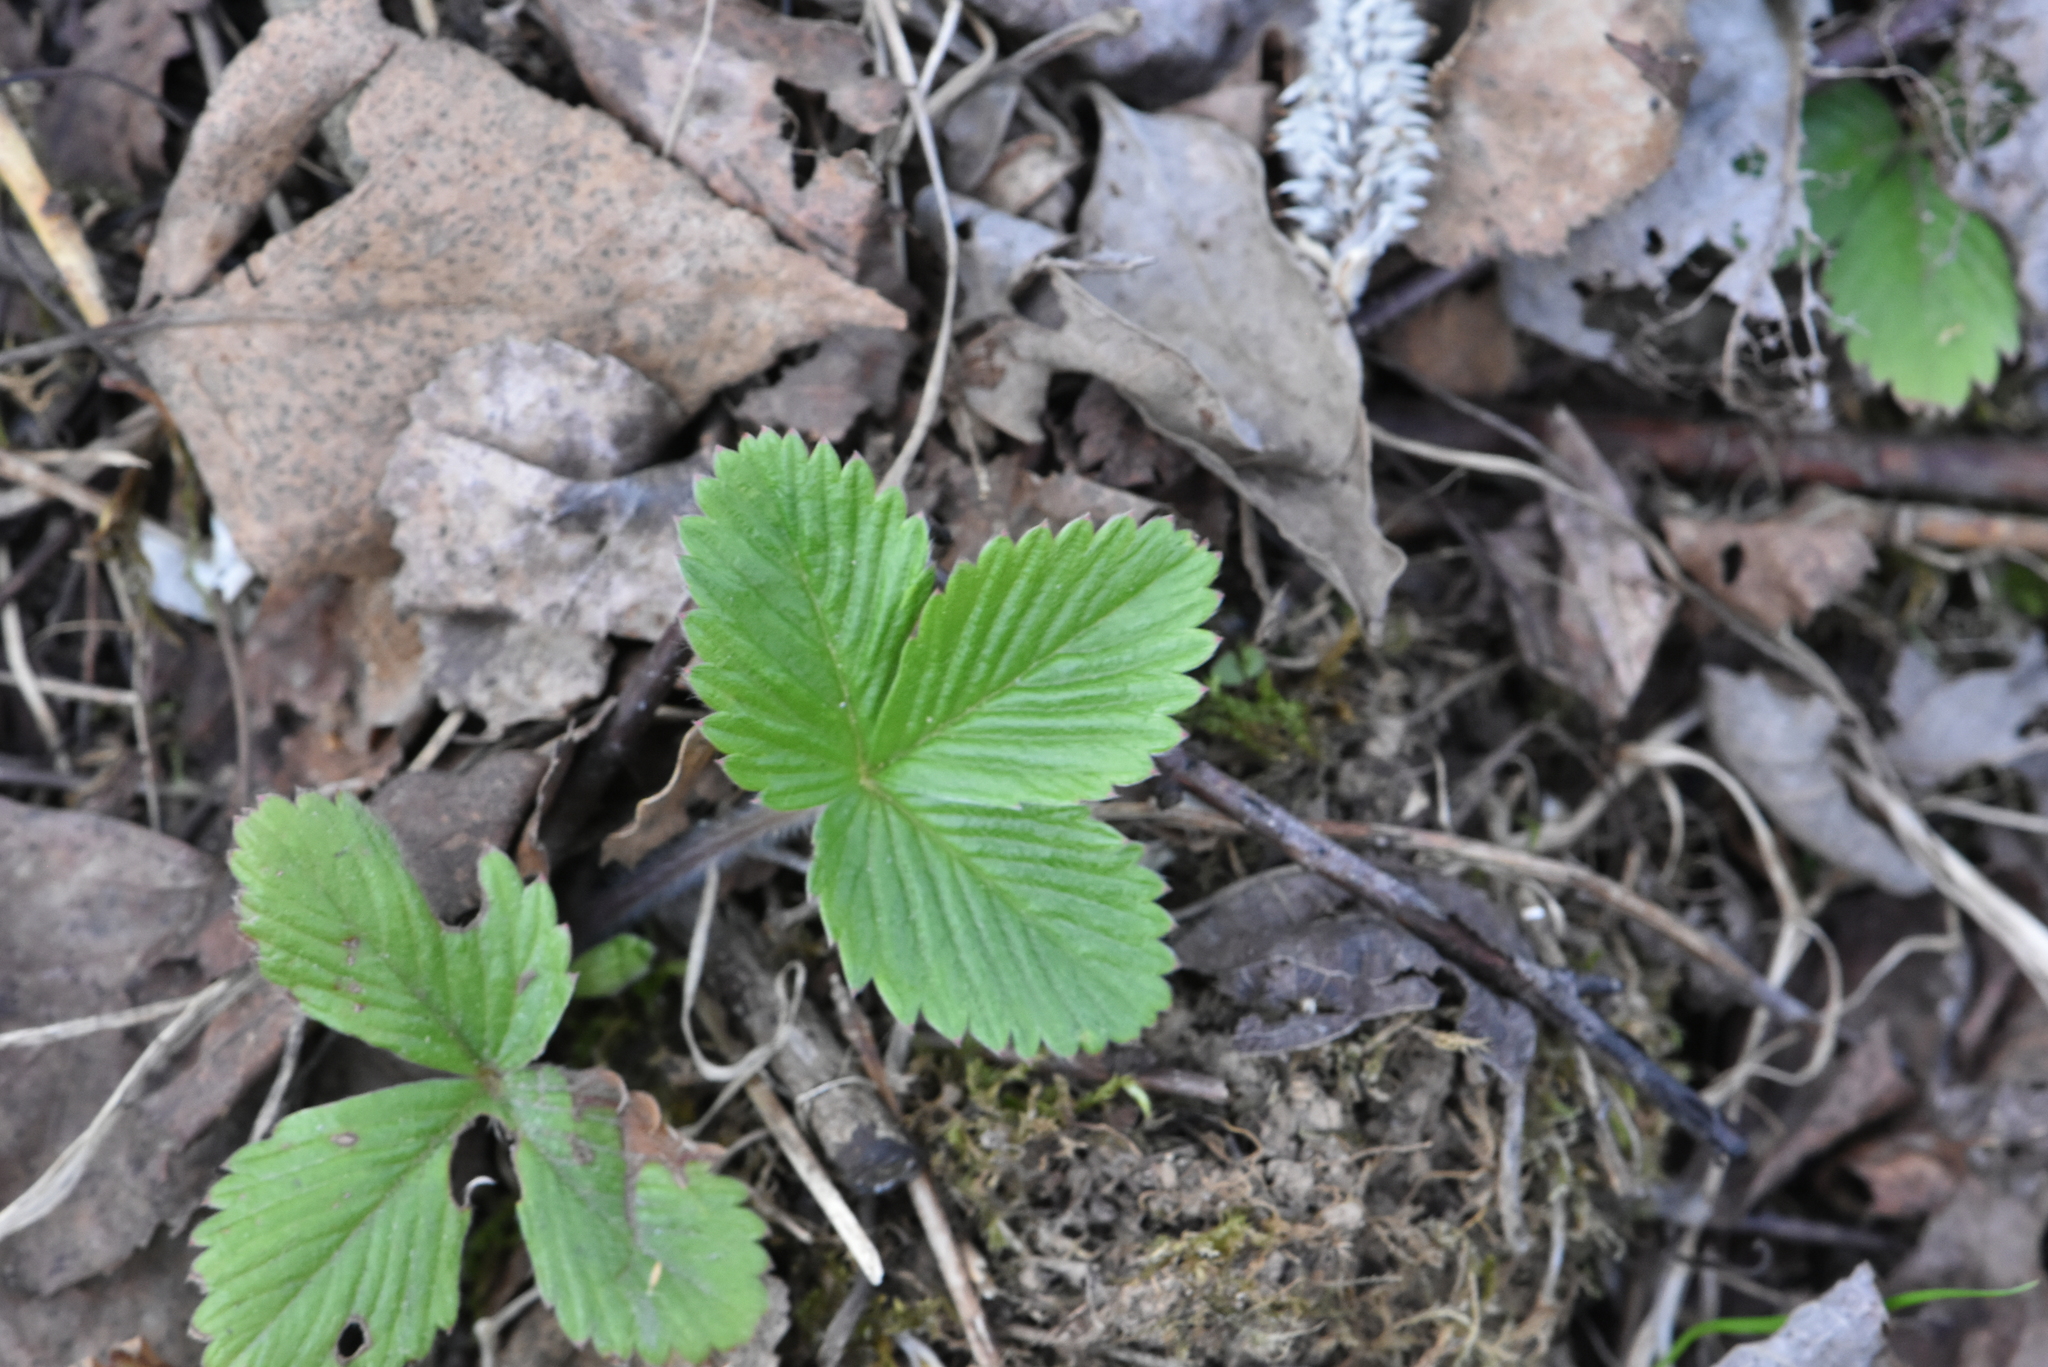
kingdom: Plantae
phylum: Tracheophyta
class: Magnoliopsida
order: Rosales
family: Rosaceae
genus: Fragaria
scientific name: Fragaria vesca
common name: Wild strawberry
